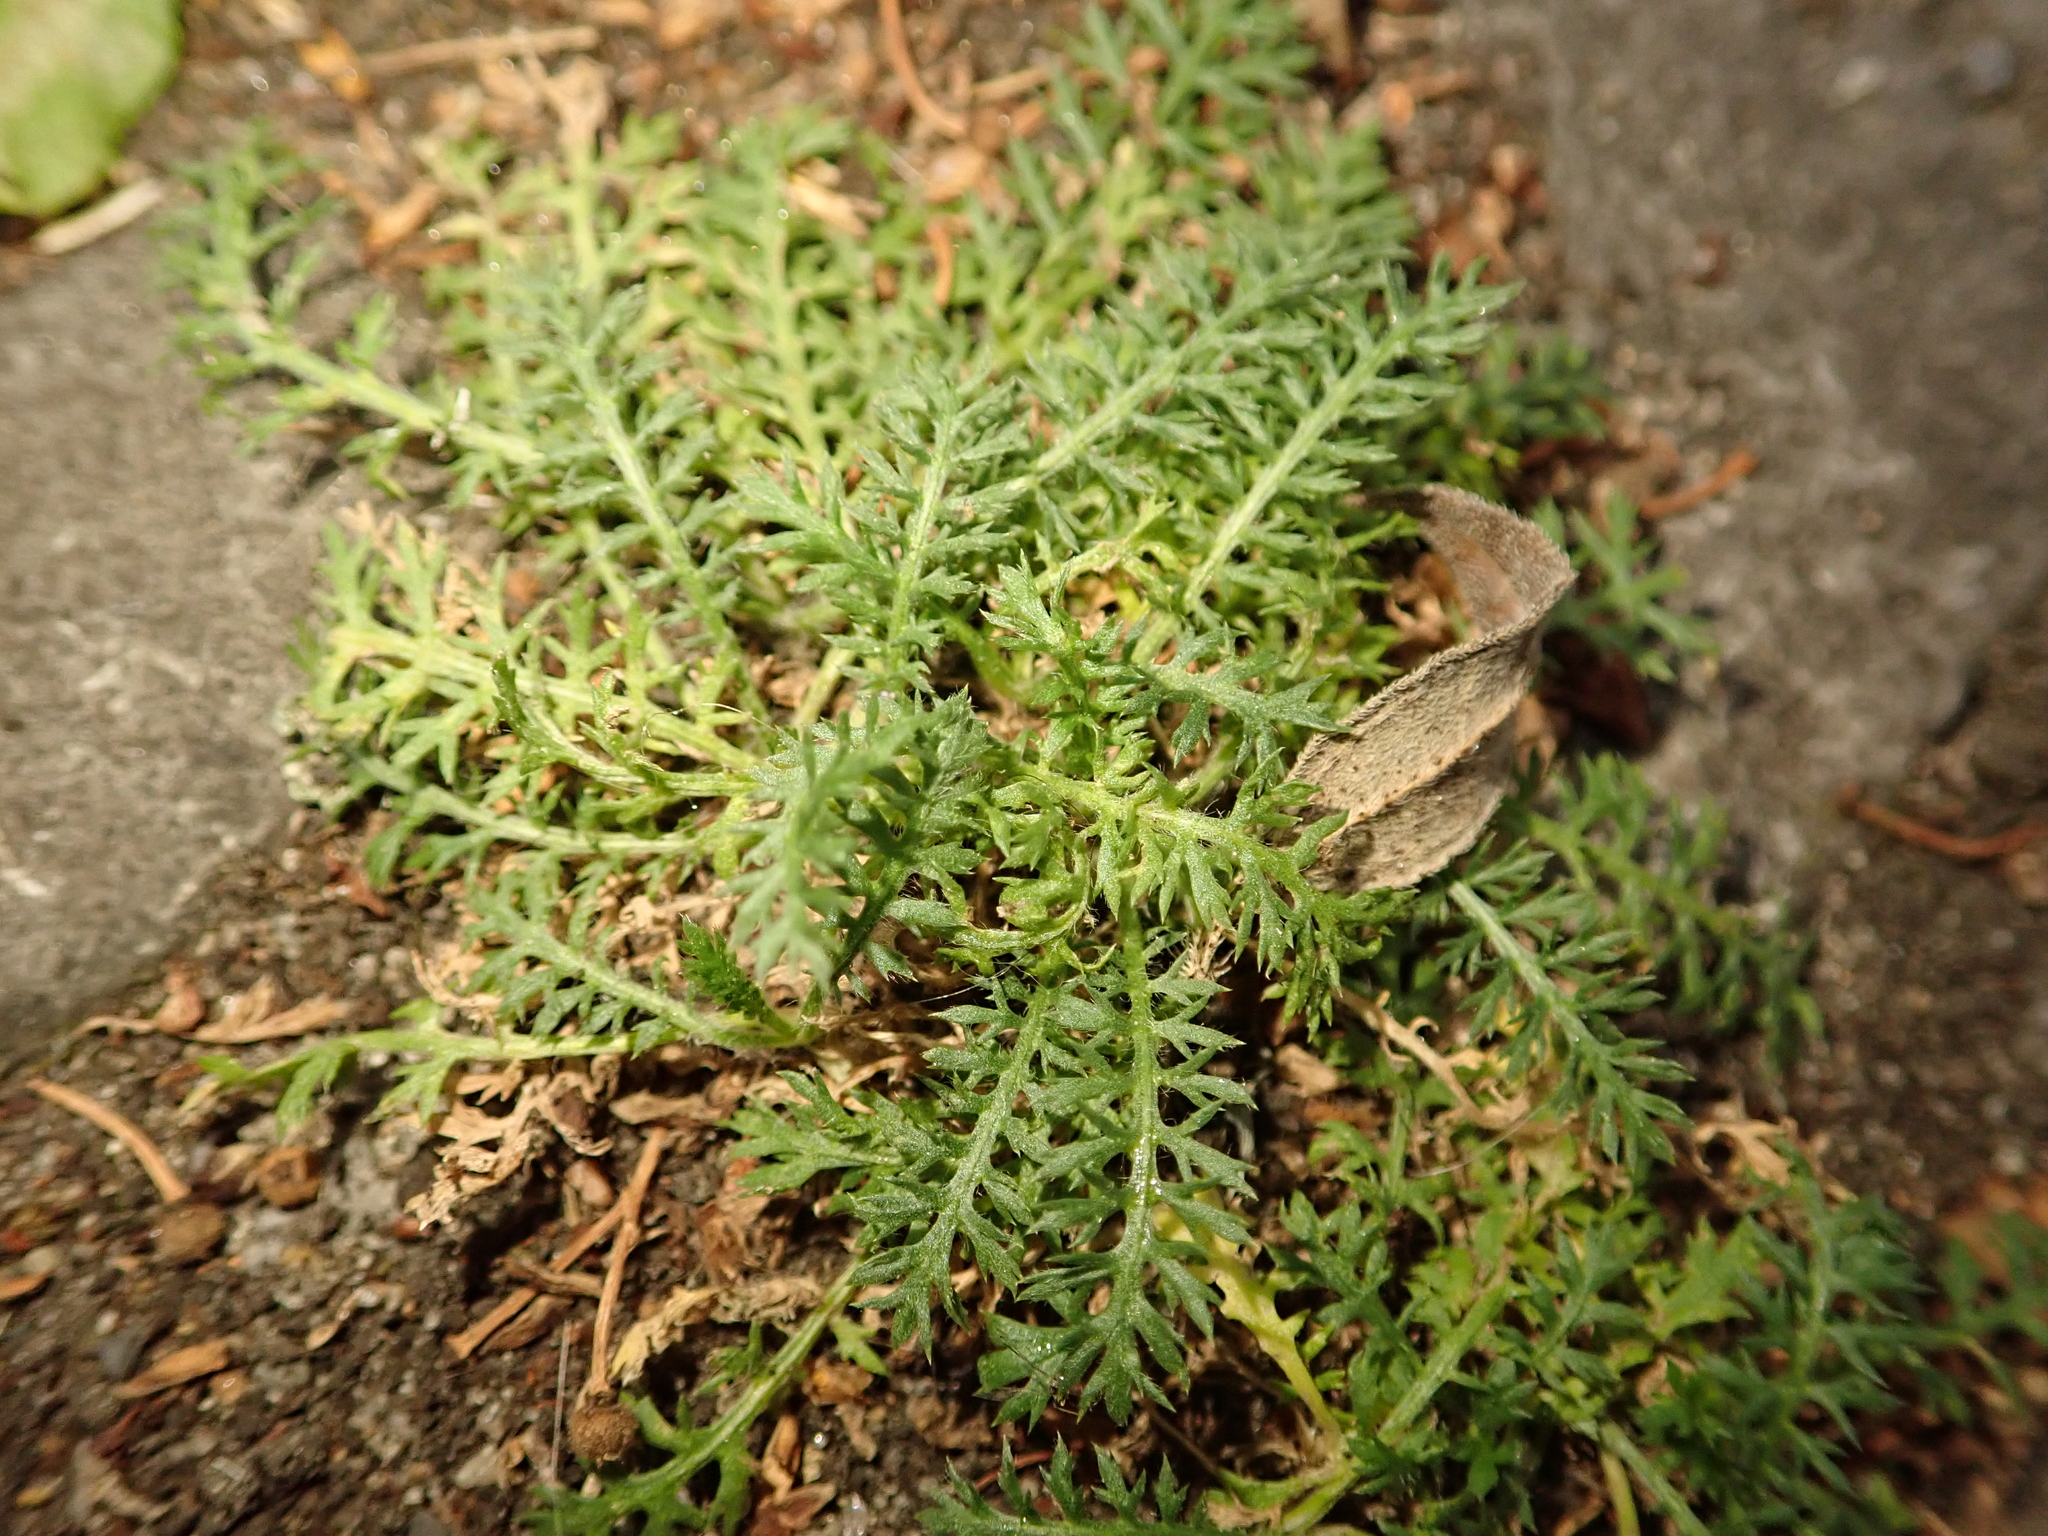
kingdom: Plantae
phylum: Tracheophyta
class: Magnoliopsida
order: Asterales
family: Asteraceae
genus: Achillea
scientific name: Achillea millefolium
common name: Yarrow
